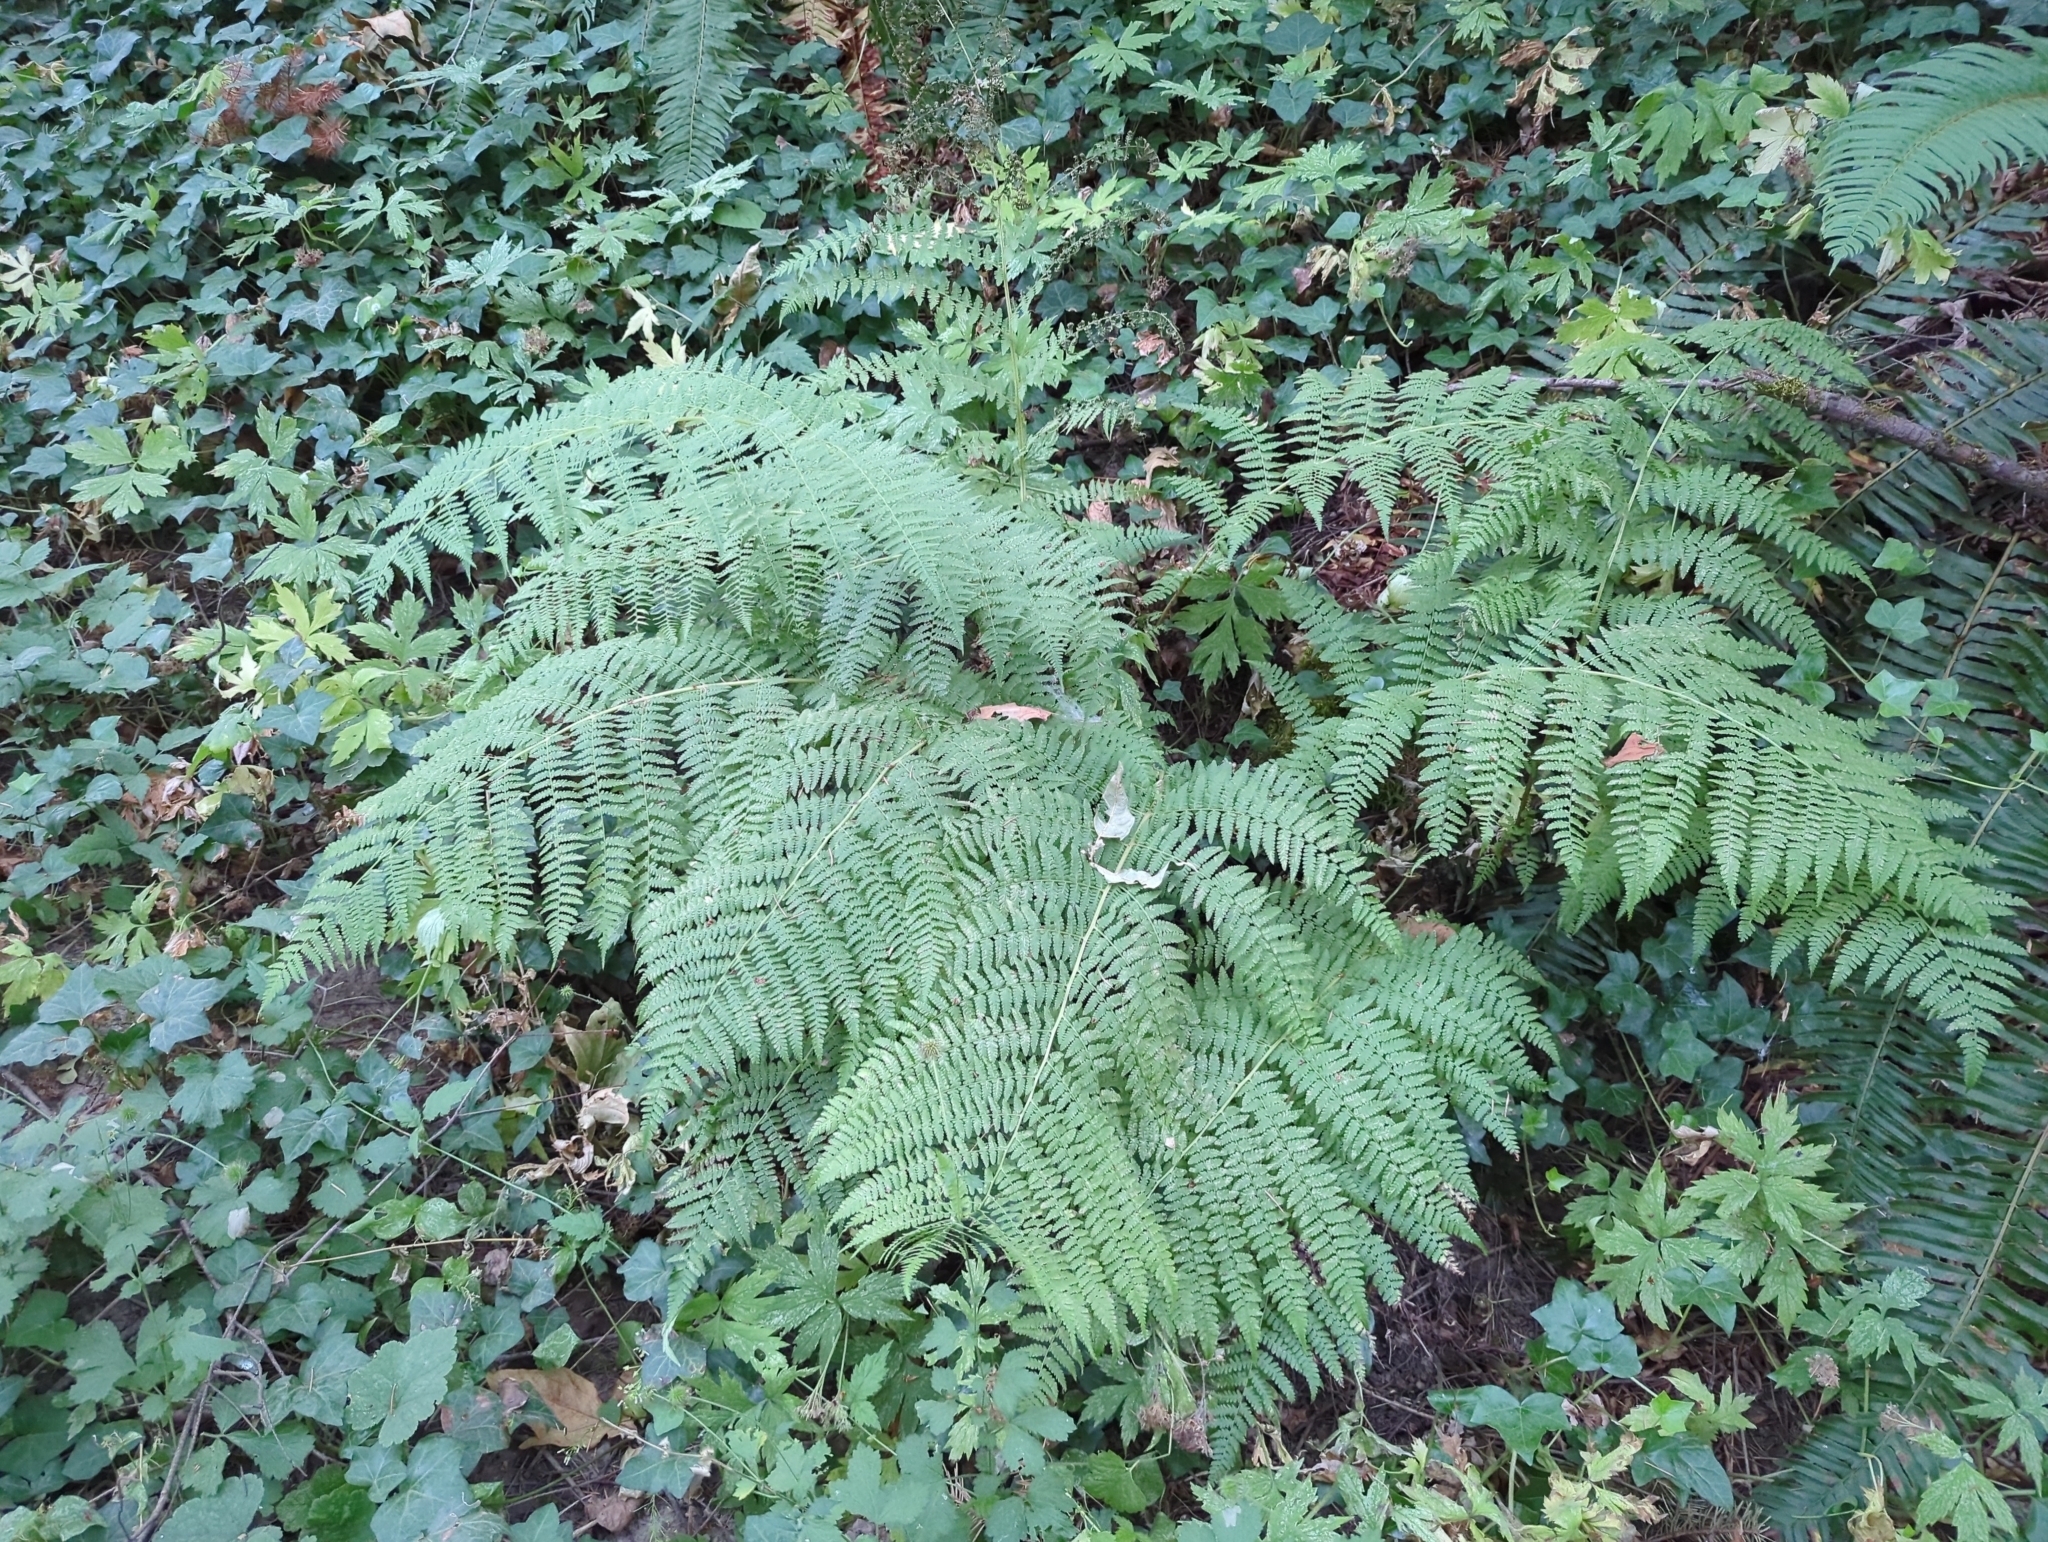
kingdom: Plantae
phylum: Tracheophyta
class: Polypodiopsida
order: Polypodiales
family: Athyriaceae
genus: Athyrium
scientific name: Athyrium filix-femina
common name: Lady fern
